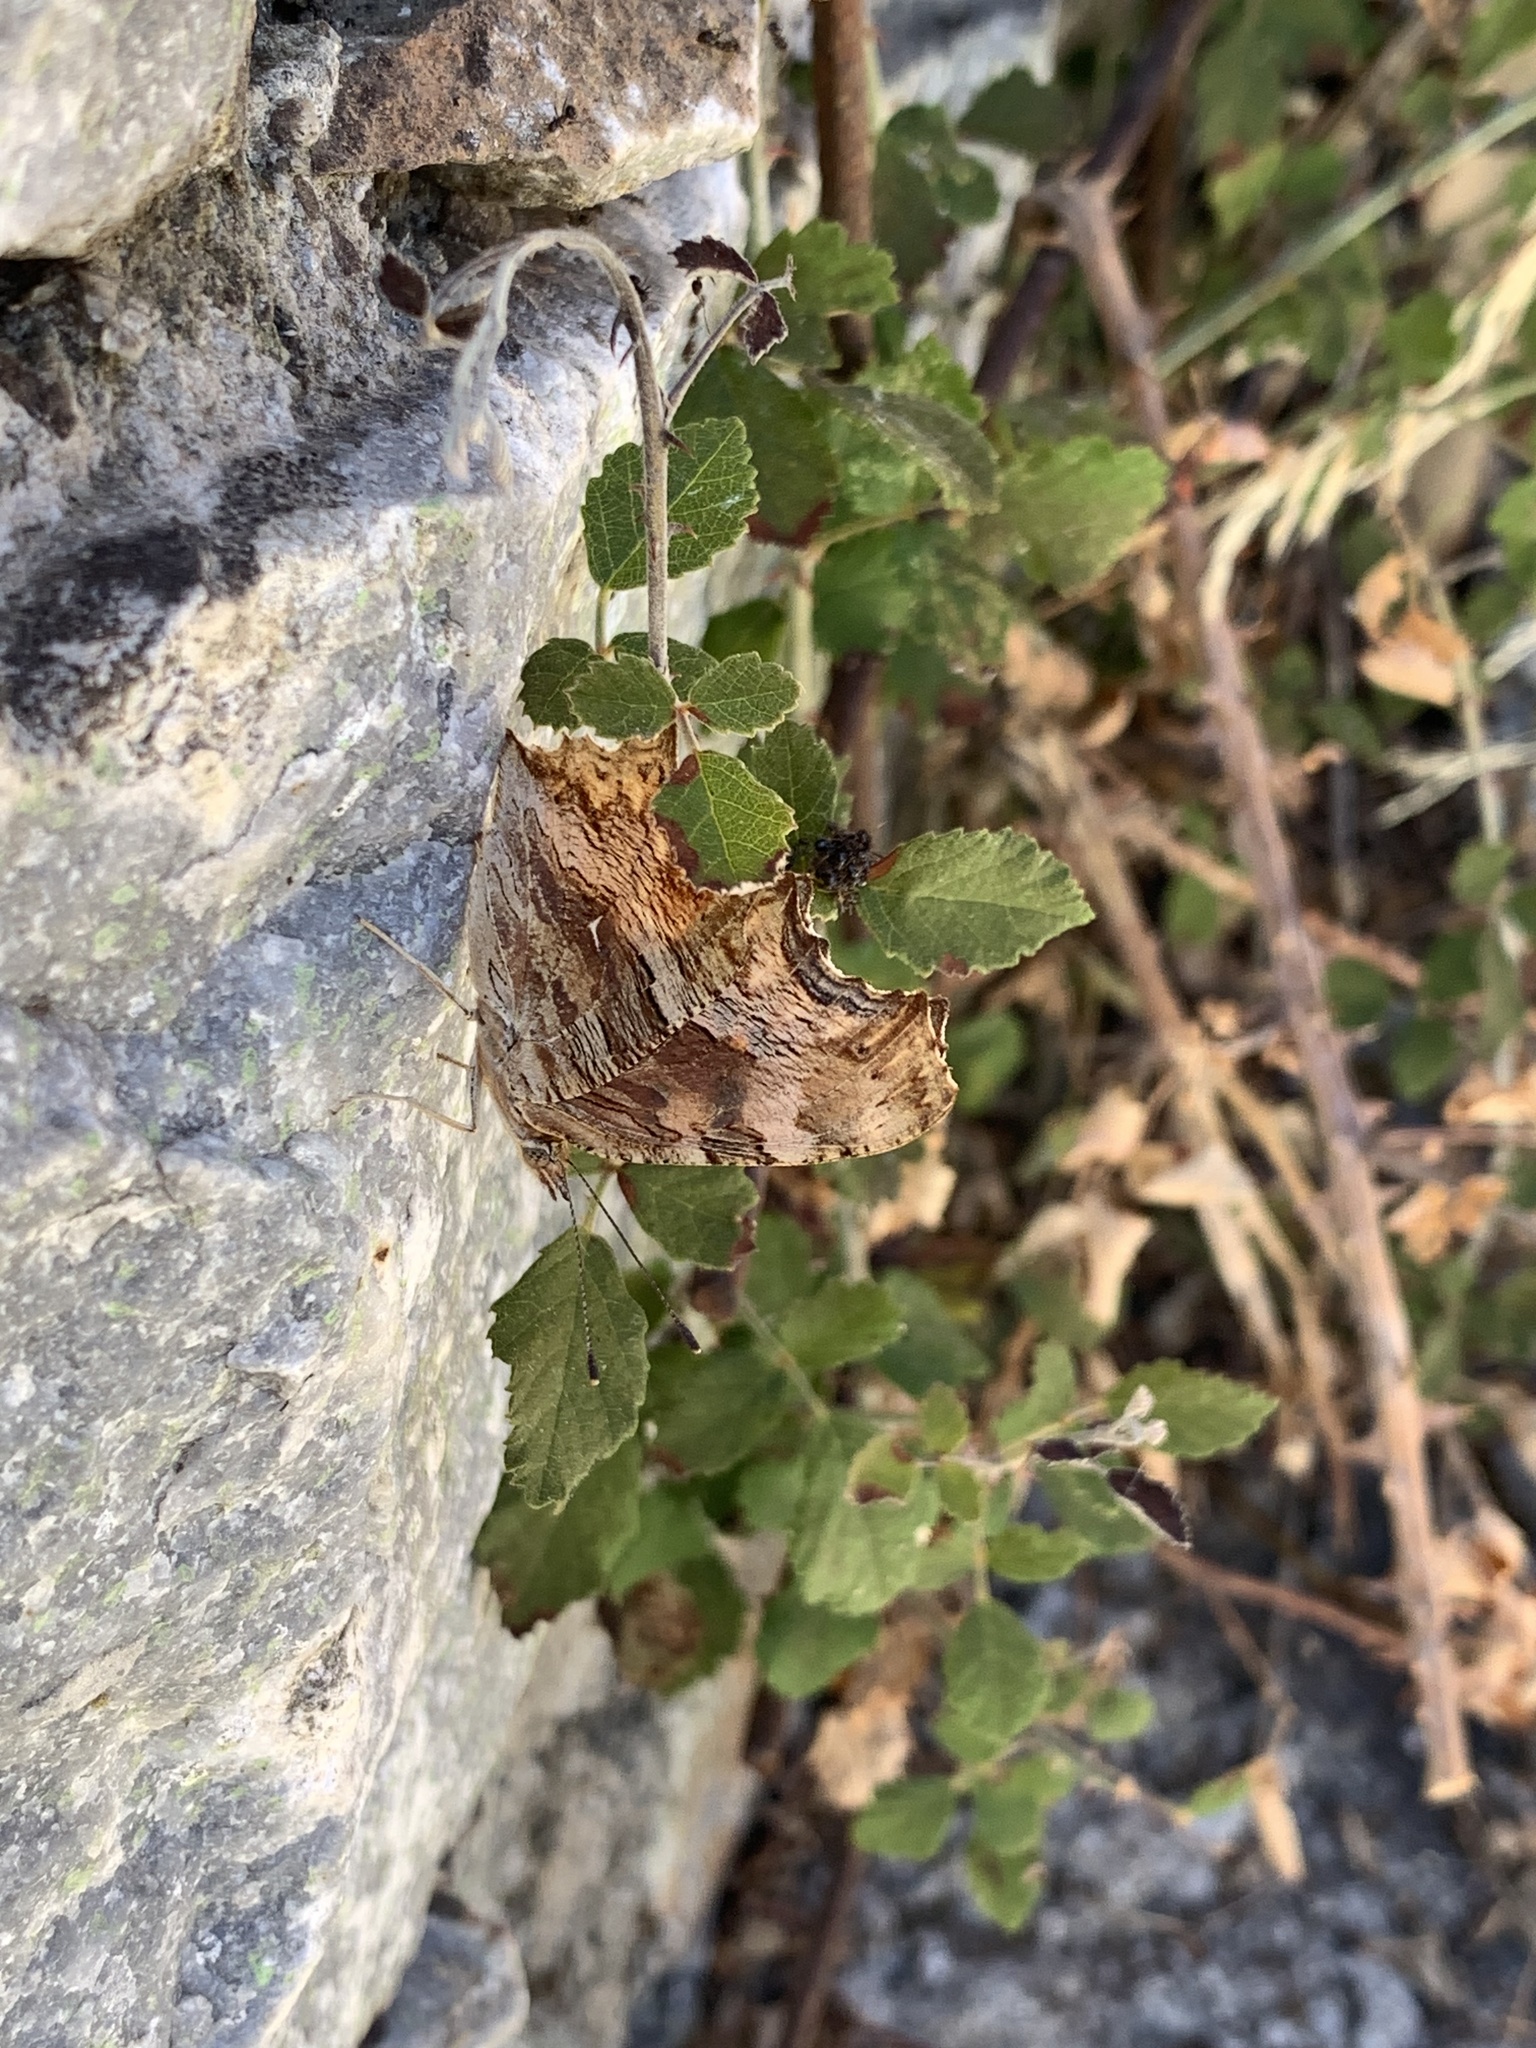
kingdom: Animalia
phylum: Arthropoda
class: Insecta
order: Lepidoptera
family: Nymphalidae
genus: Polygonia
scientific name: Polygonia egea
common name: Southern comma
